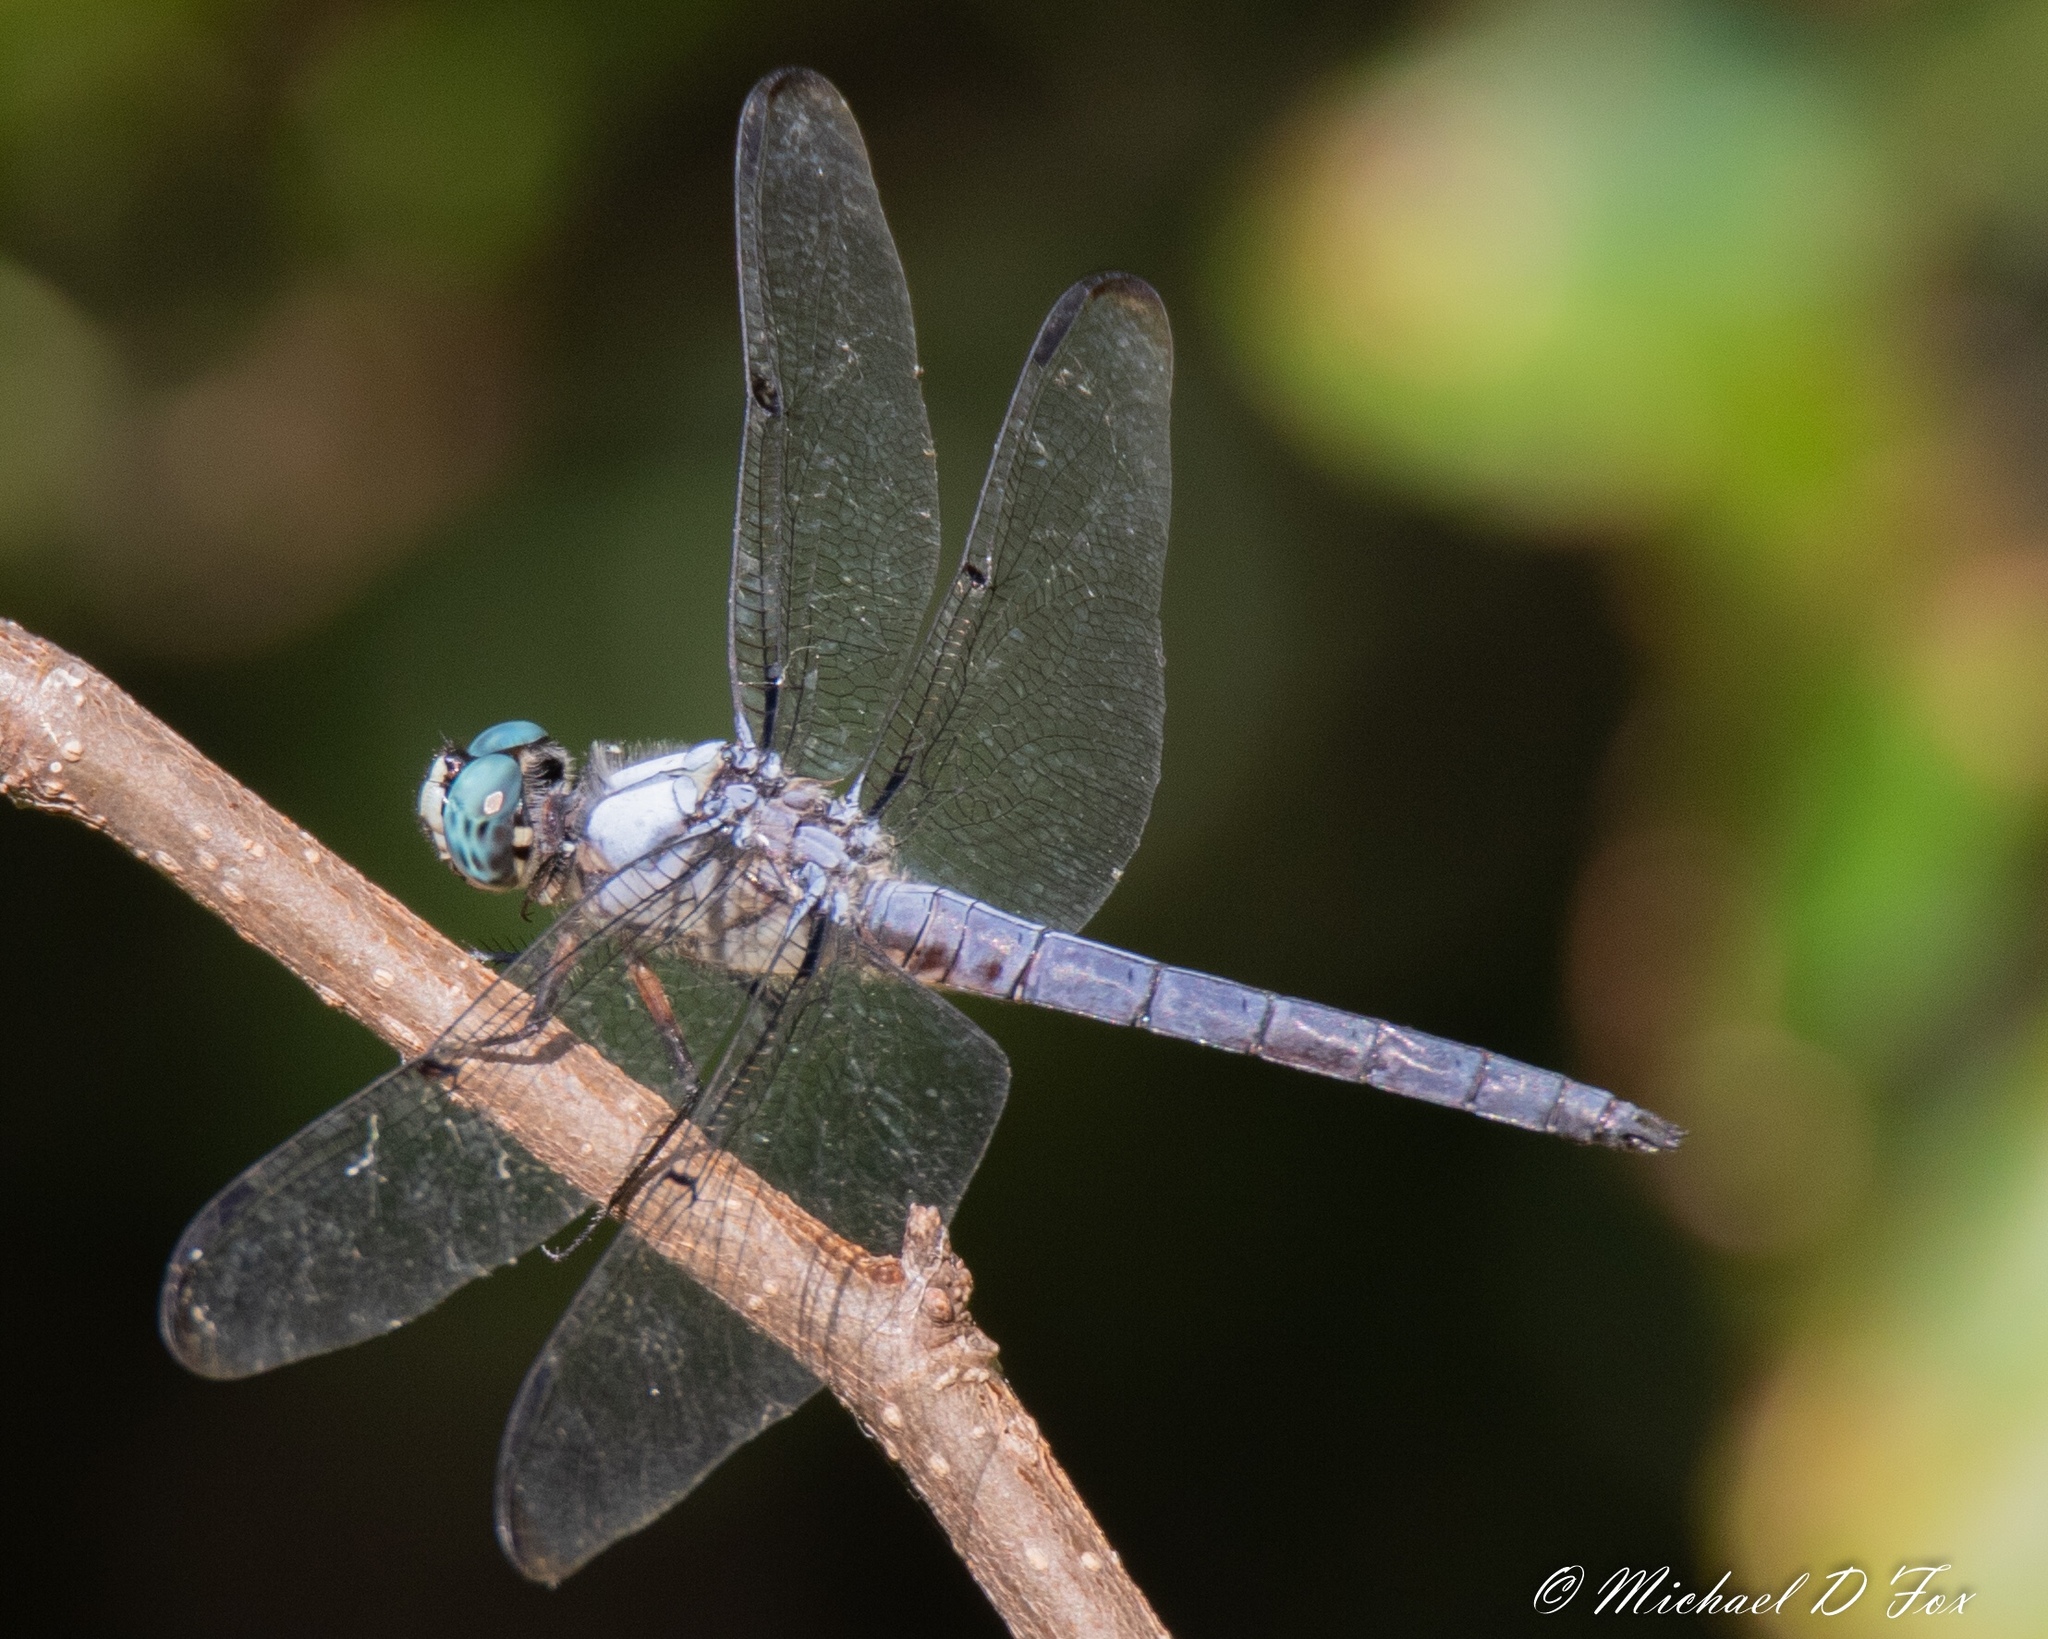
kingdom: Animalia
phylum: Arthropoda
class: Insecta
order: Odonata
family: Libellulidae
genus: Libellula
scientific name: Libellula vibrans
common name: Great blue skimmer
